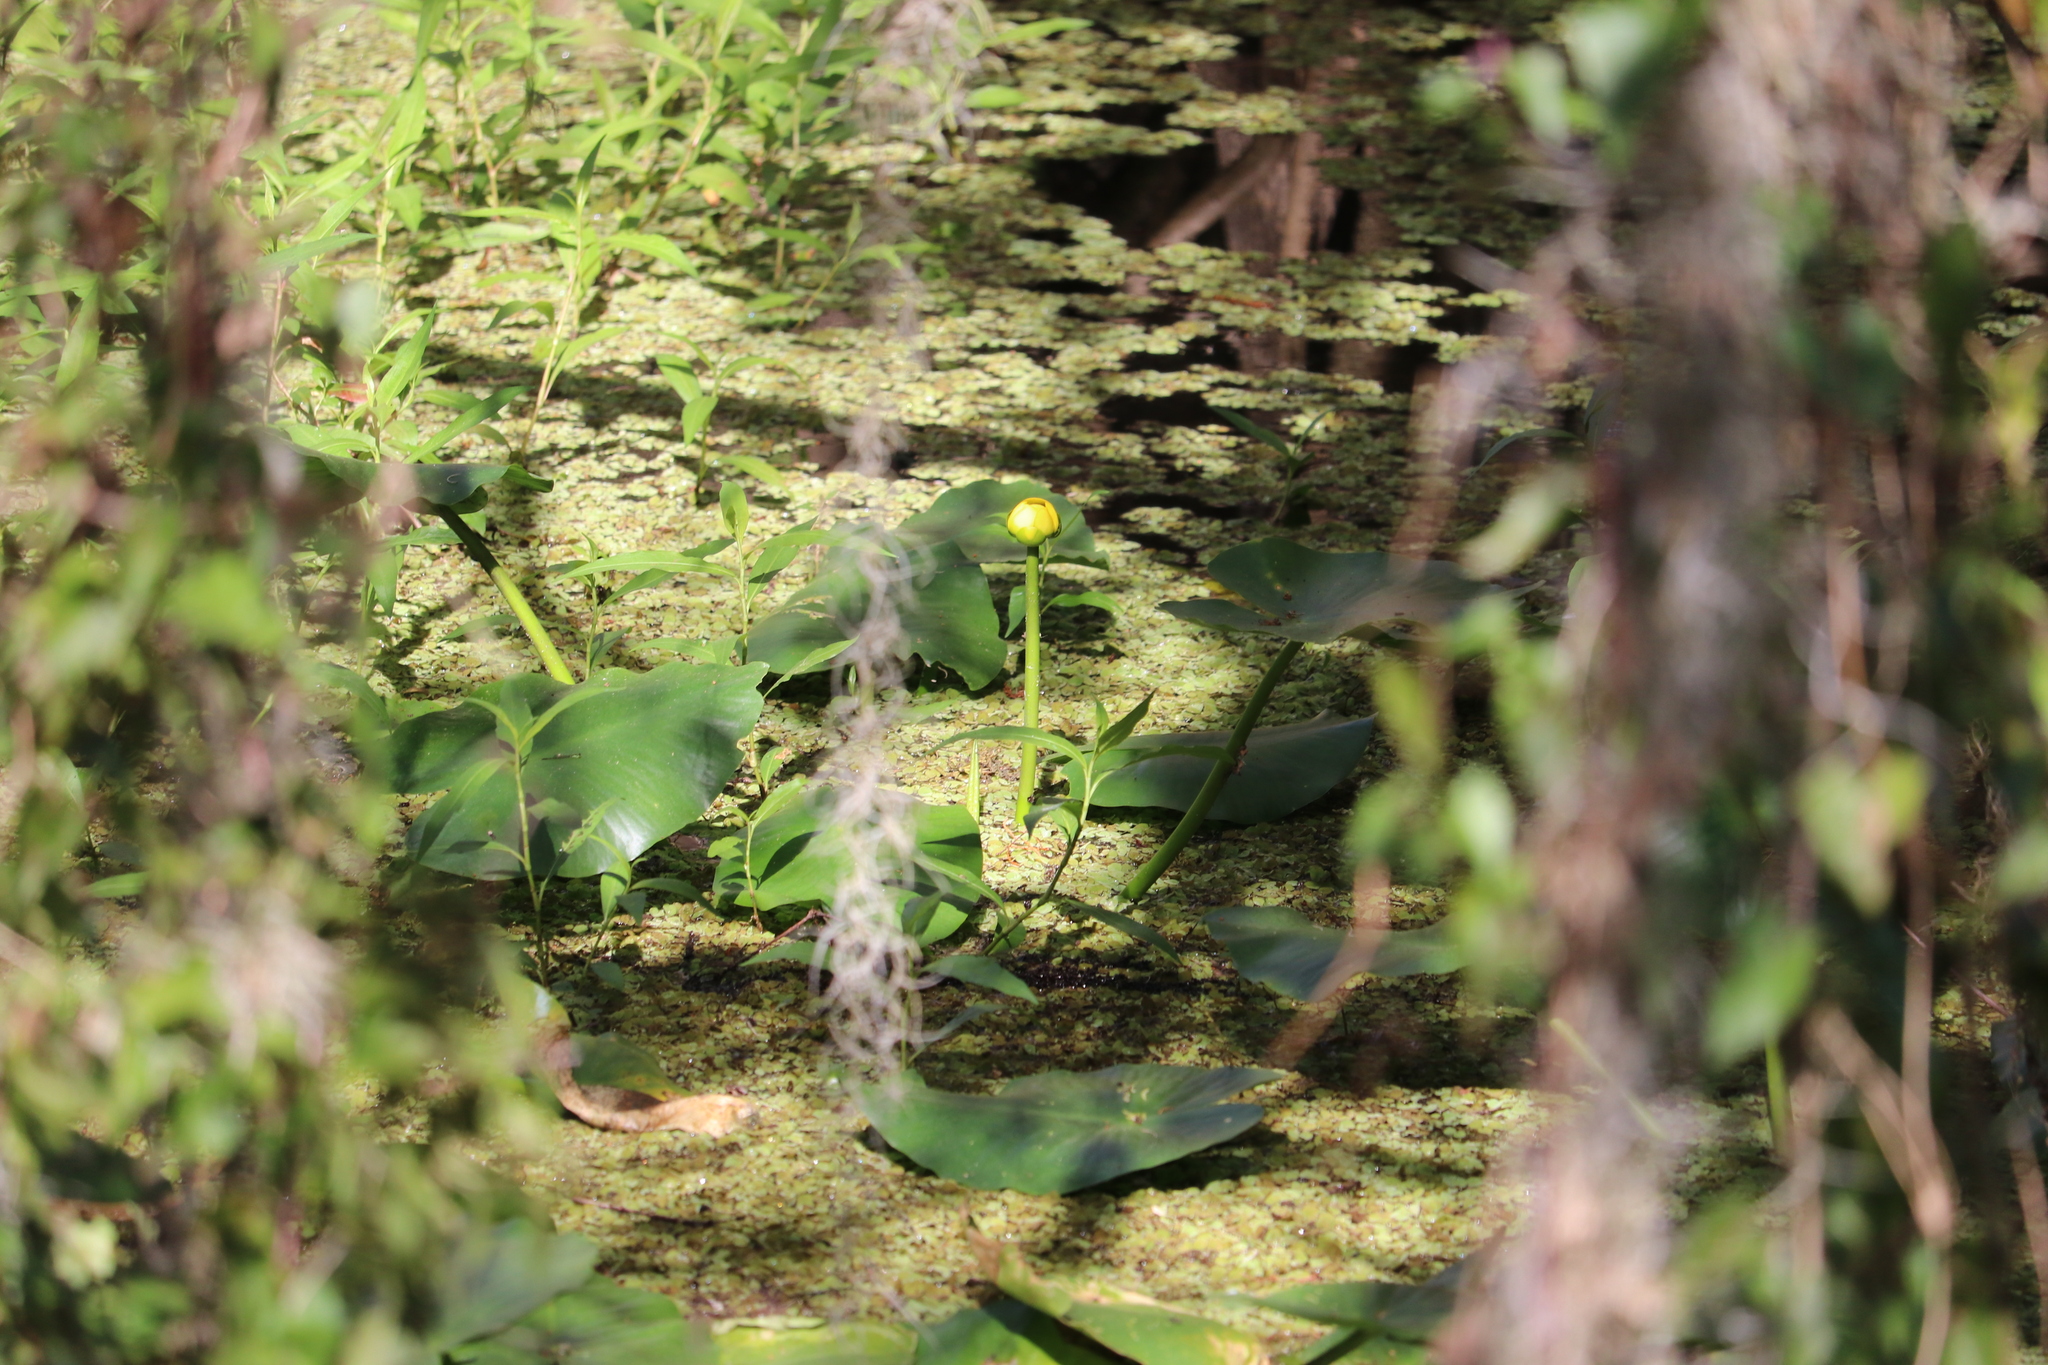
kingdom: Plantae
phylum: Tracheophyta
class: Magnoliopsida
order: Nymphaeales
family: Nymphaeaceae
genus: Nuphar
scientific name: Nuphar advena
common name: Spatter-dock
